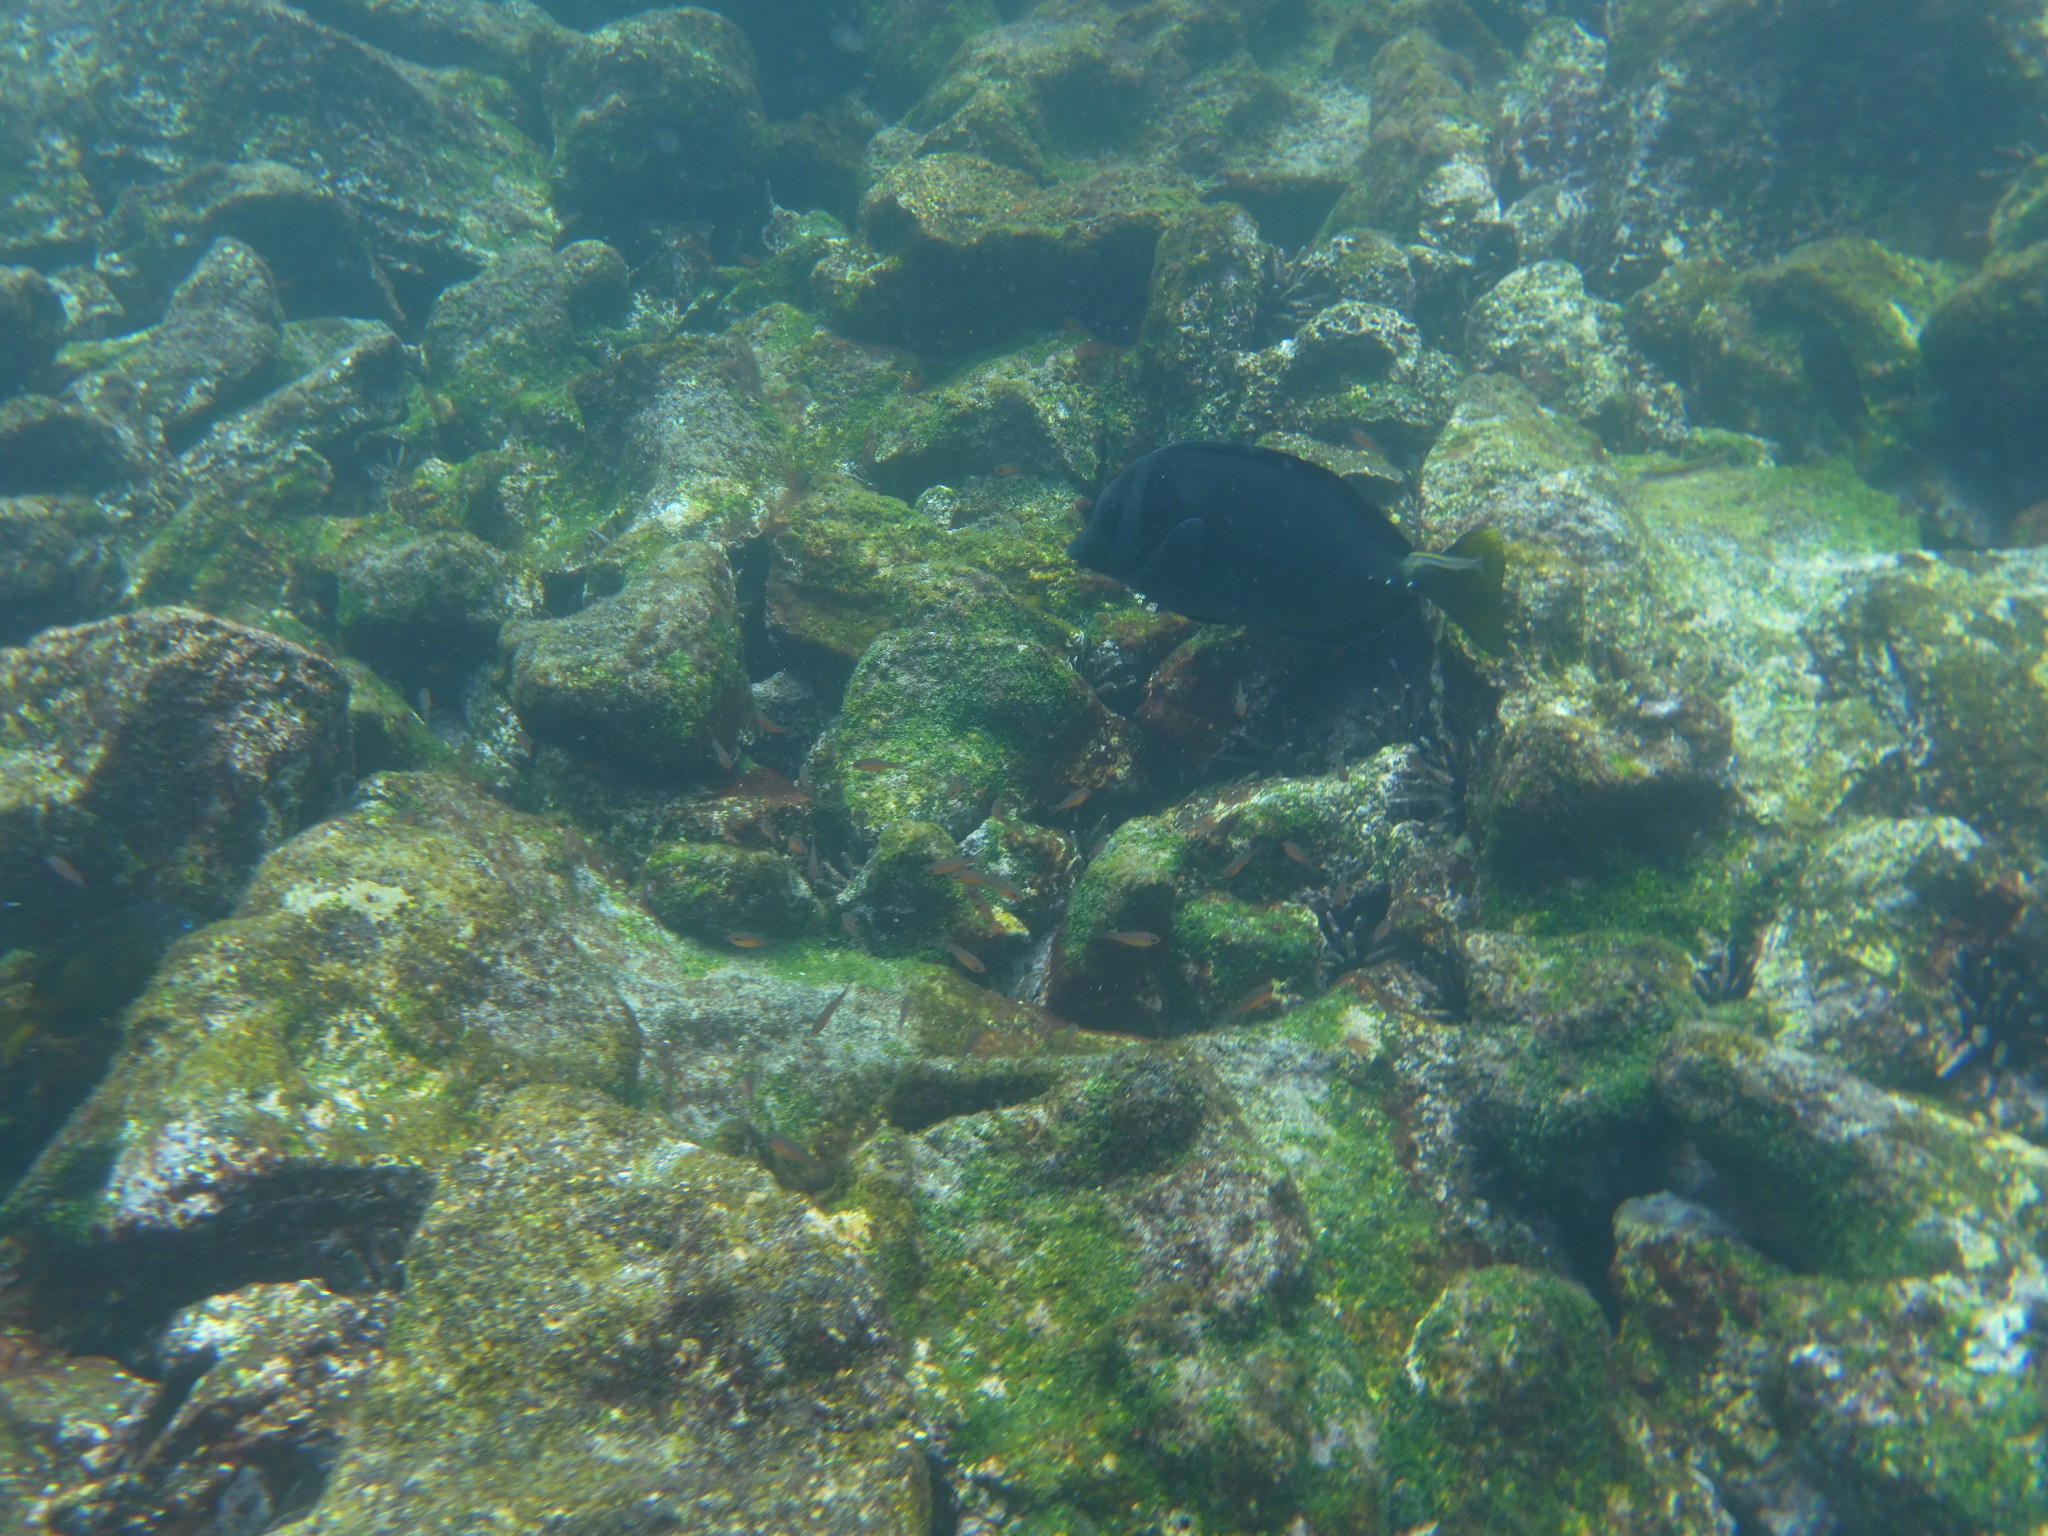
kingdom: Animalia
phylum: Chordata
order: Perciformes
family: Acanthuridae
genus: Prionurus
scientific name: Prionurus laticlavius
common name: Razor surgeonfish
